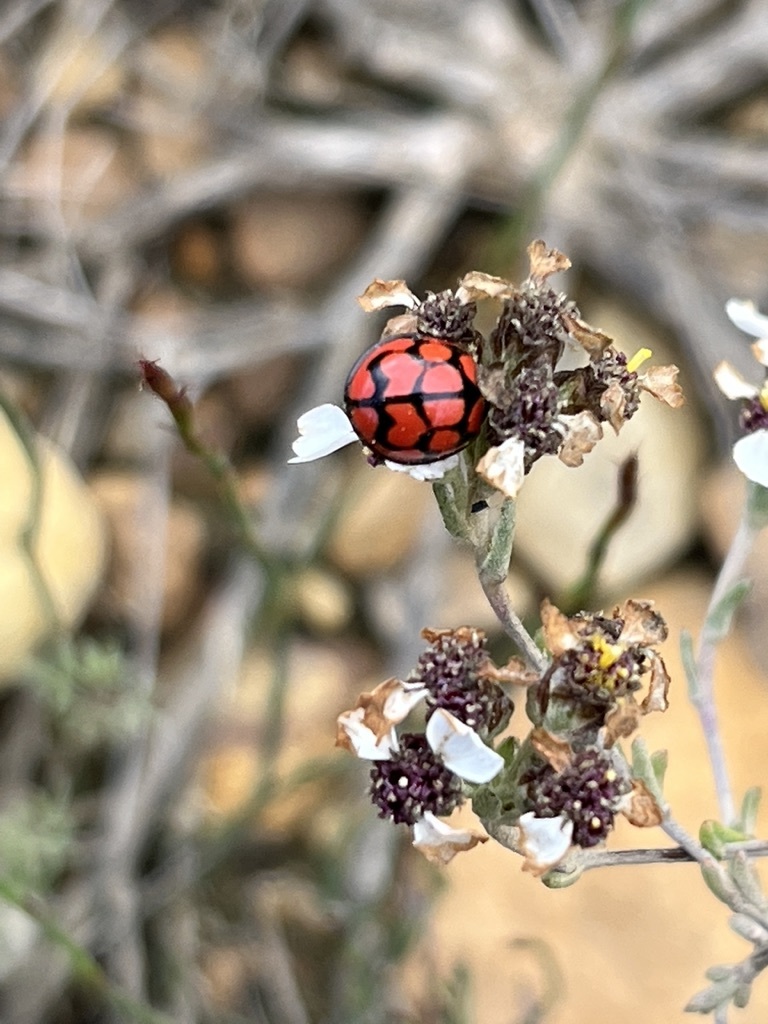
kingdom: Animalia
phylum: Arthropoda
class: Insecta
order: Coleoptera
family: Coccinellidae
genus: Cheilomenes
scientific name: Cheilomenes lunata
